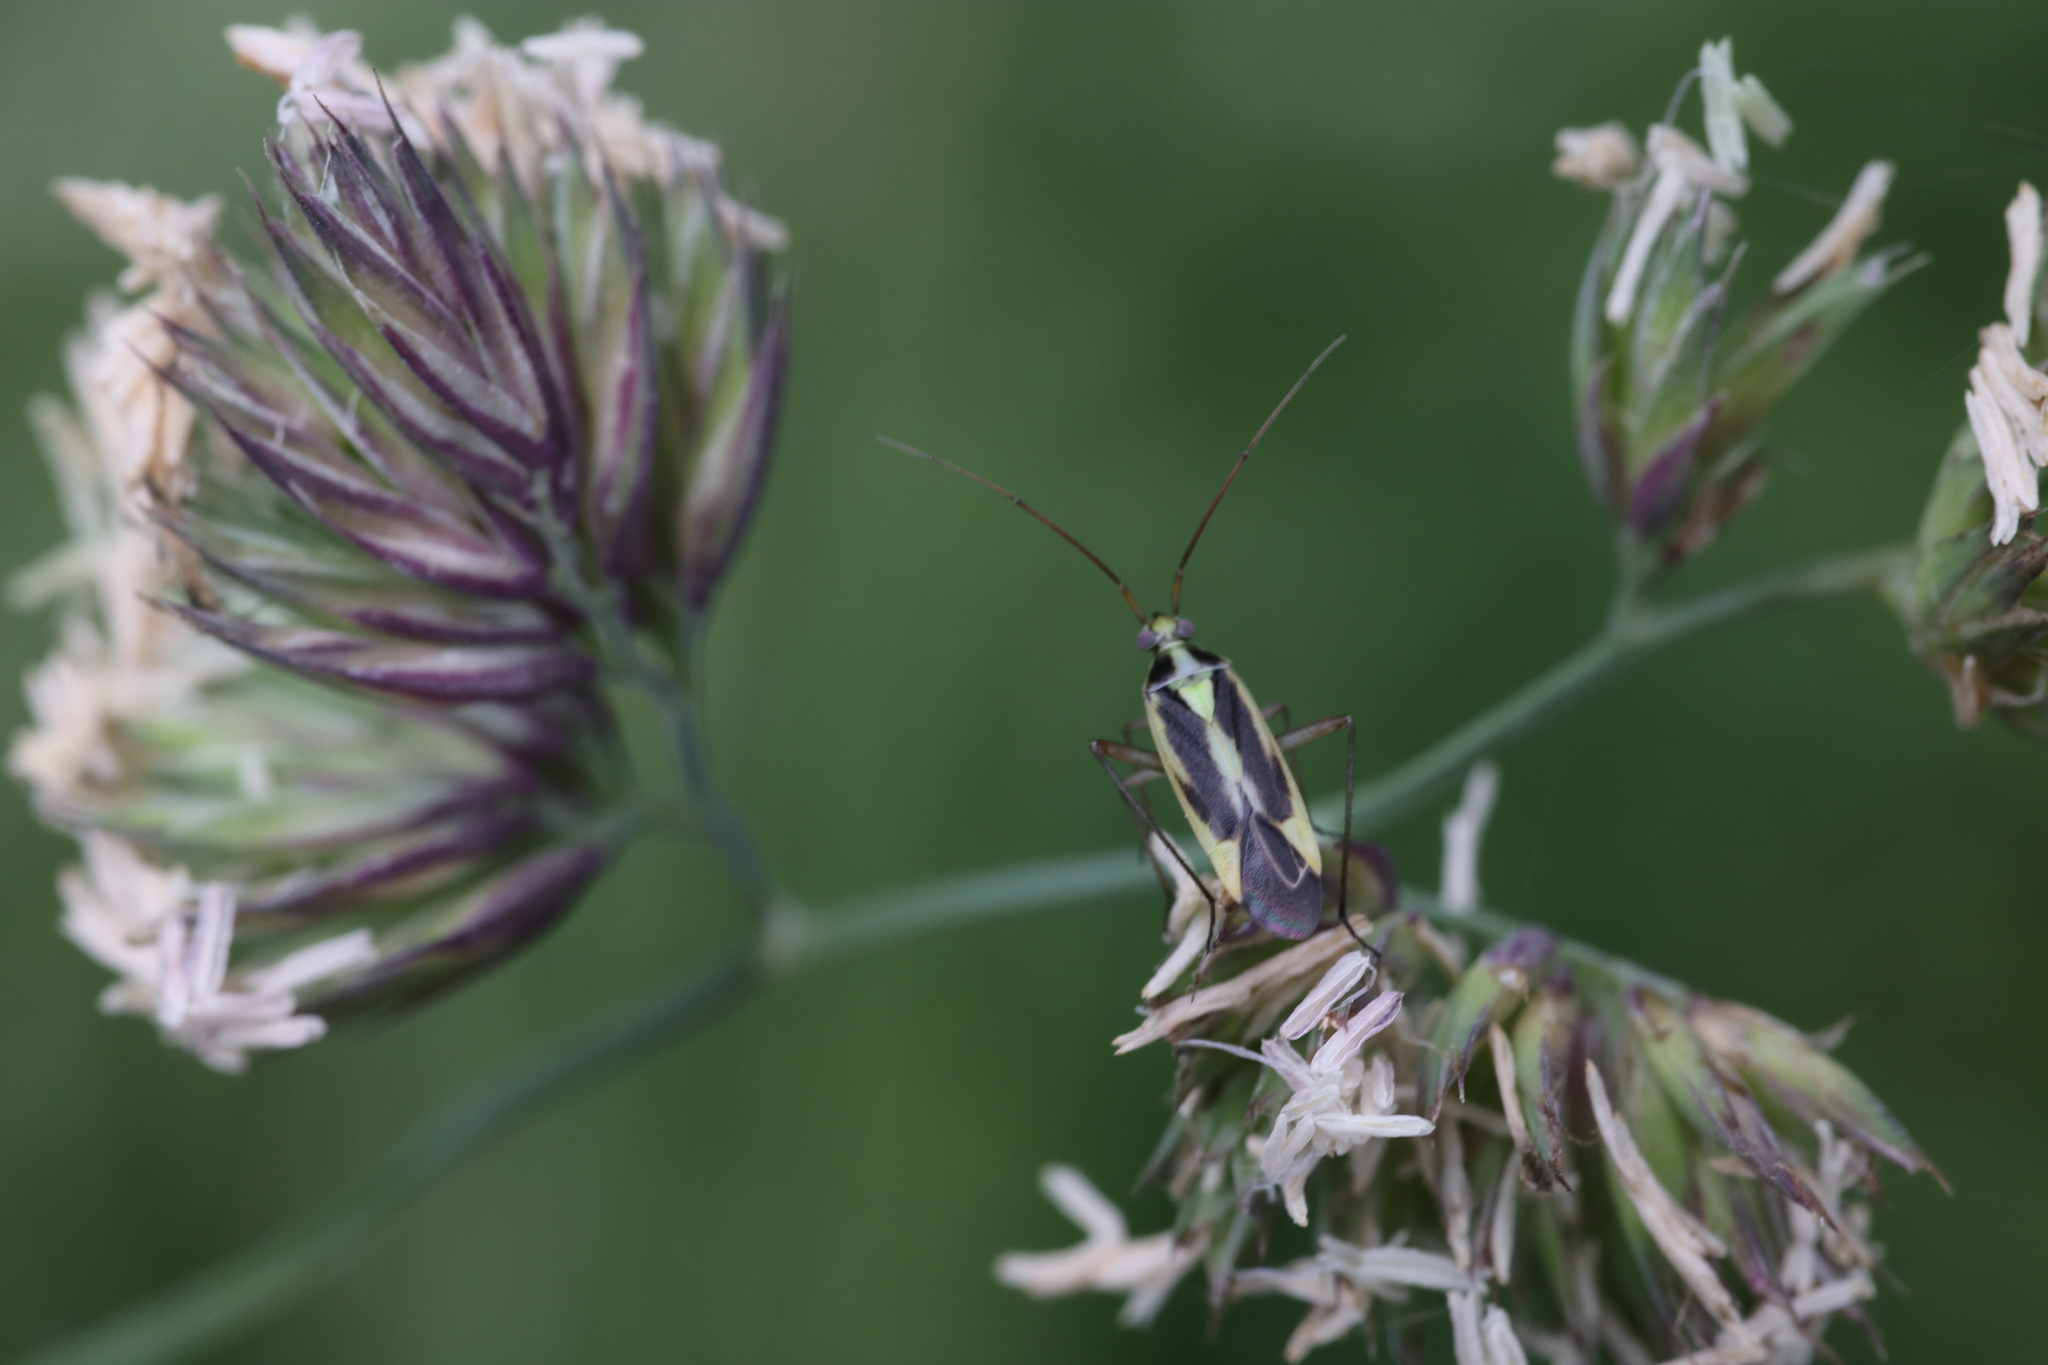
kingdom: Animalia
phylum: Arthropoda
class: Insecta
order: Hemiptera
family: Miridae
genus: Stenotus
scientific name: Stenotus binotatus
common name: Plant bug
